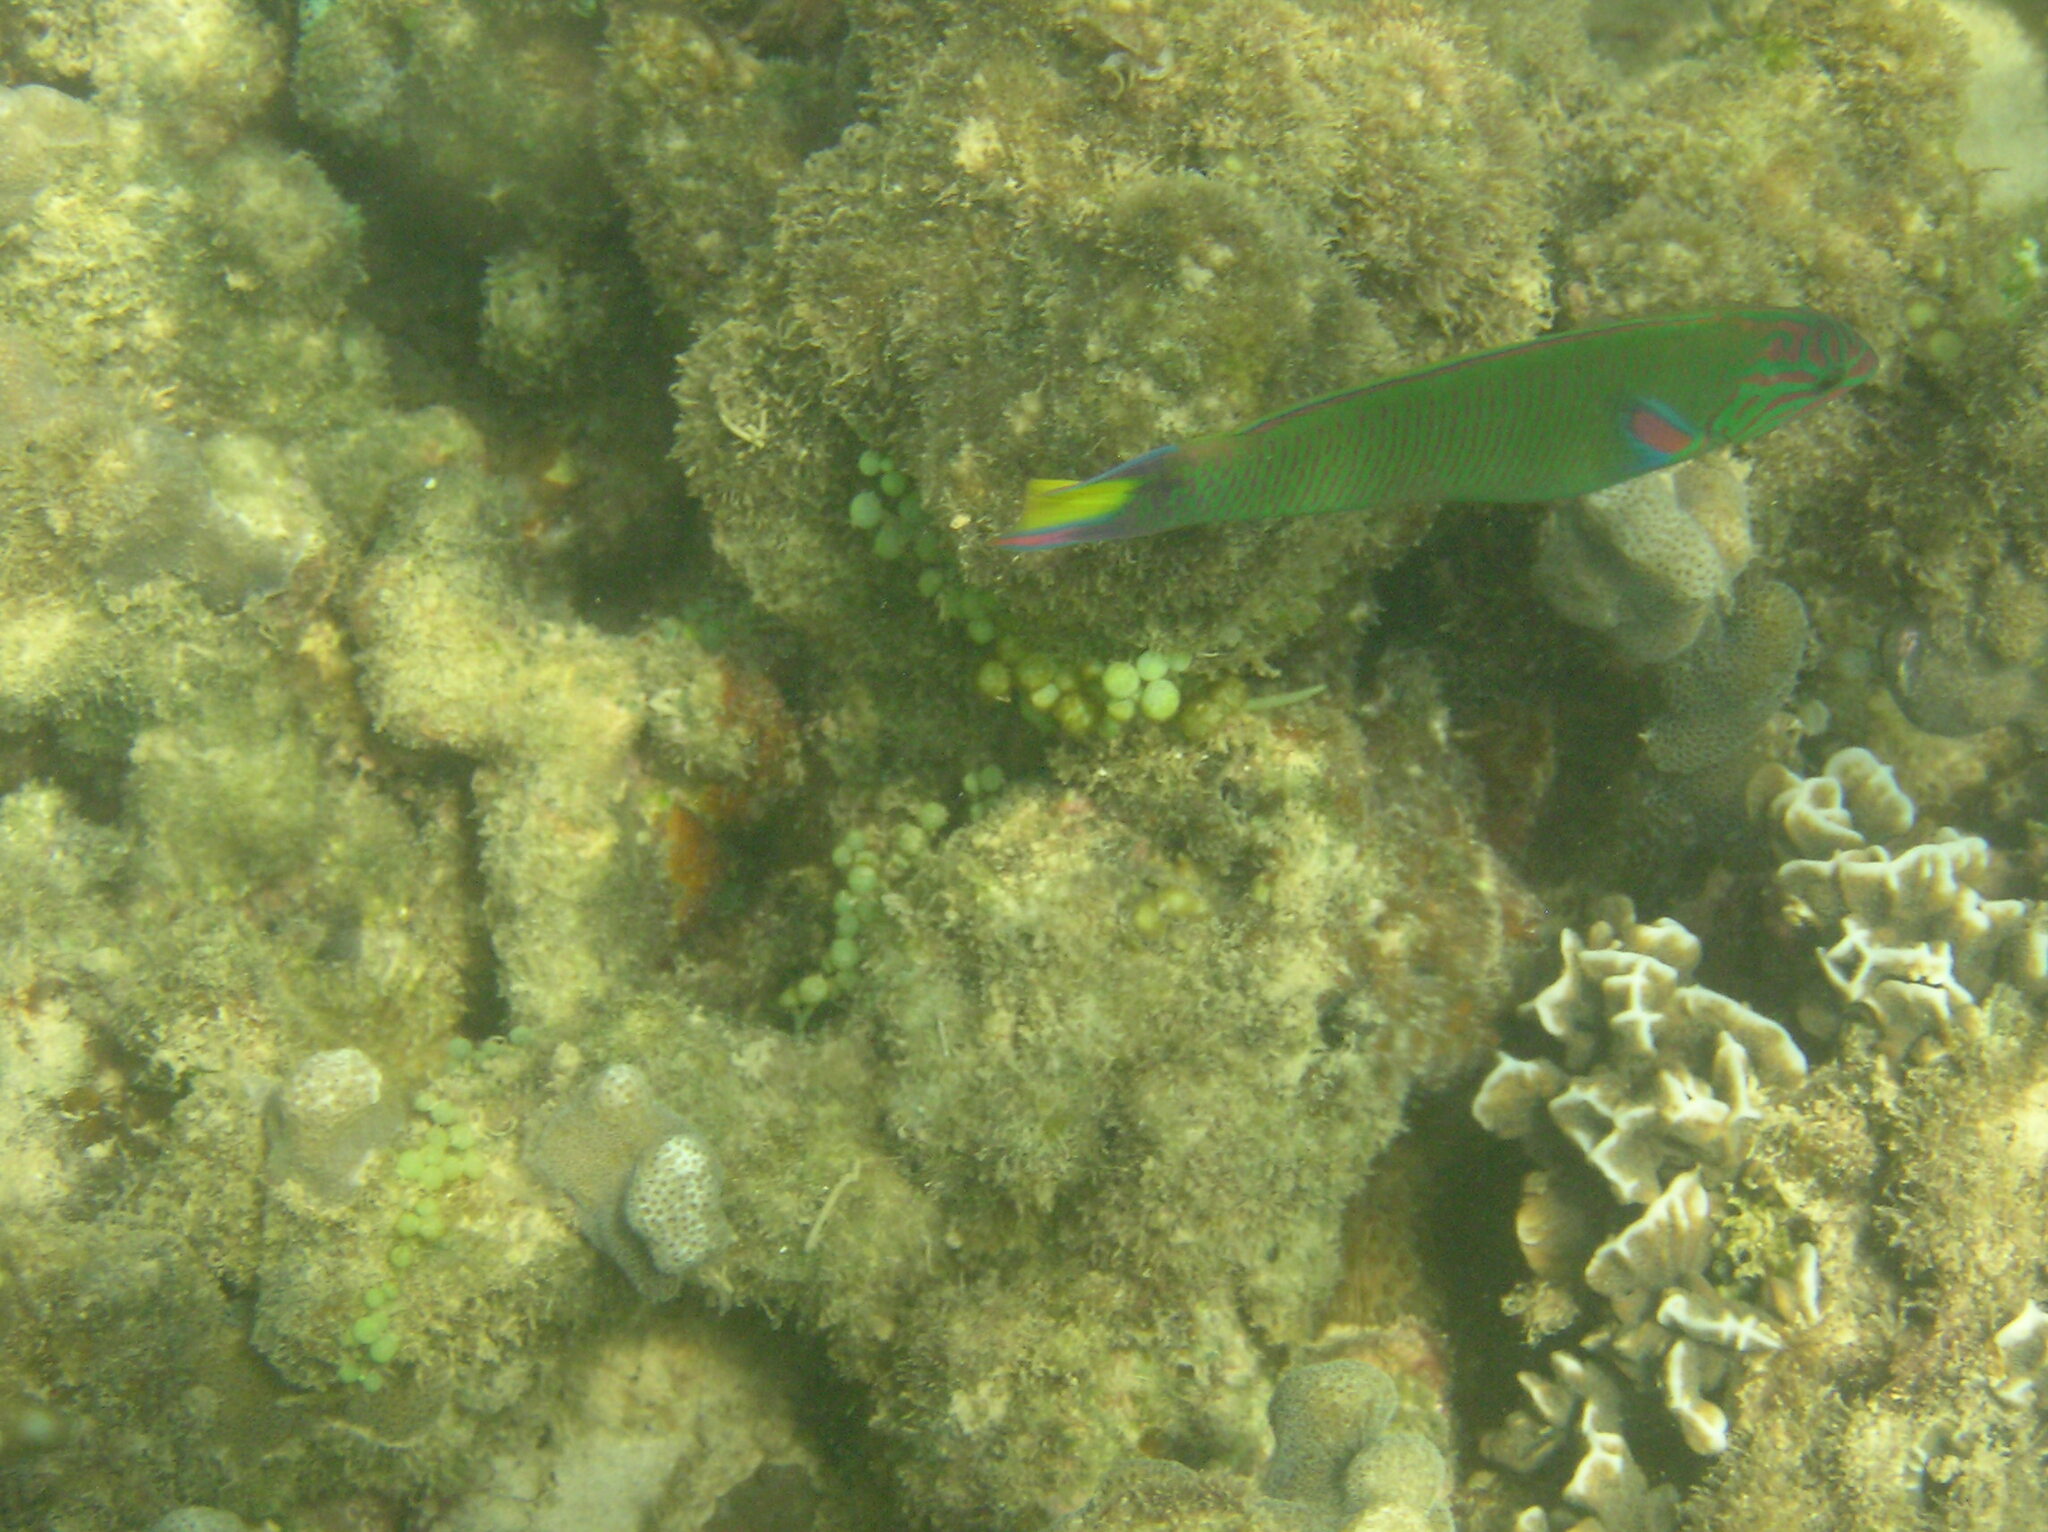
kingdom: Animalia
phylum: Chordata
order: Perciformes
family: Labridae
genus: Thalassoma
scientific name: Thalassoma lunare
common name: Blue wrasse
